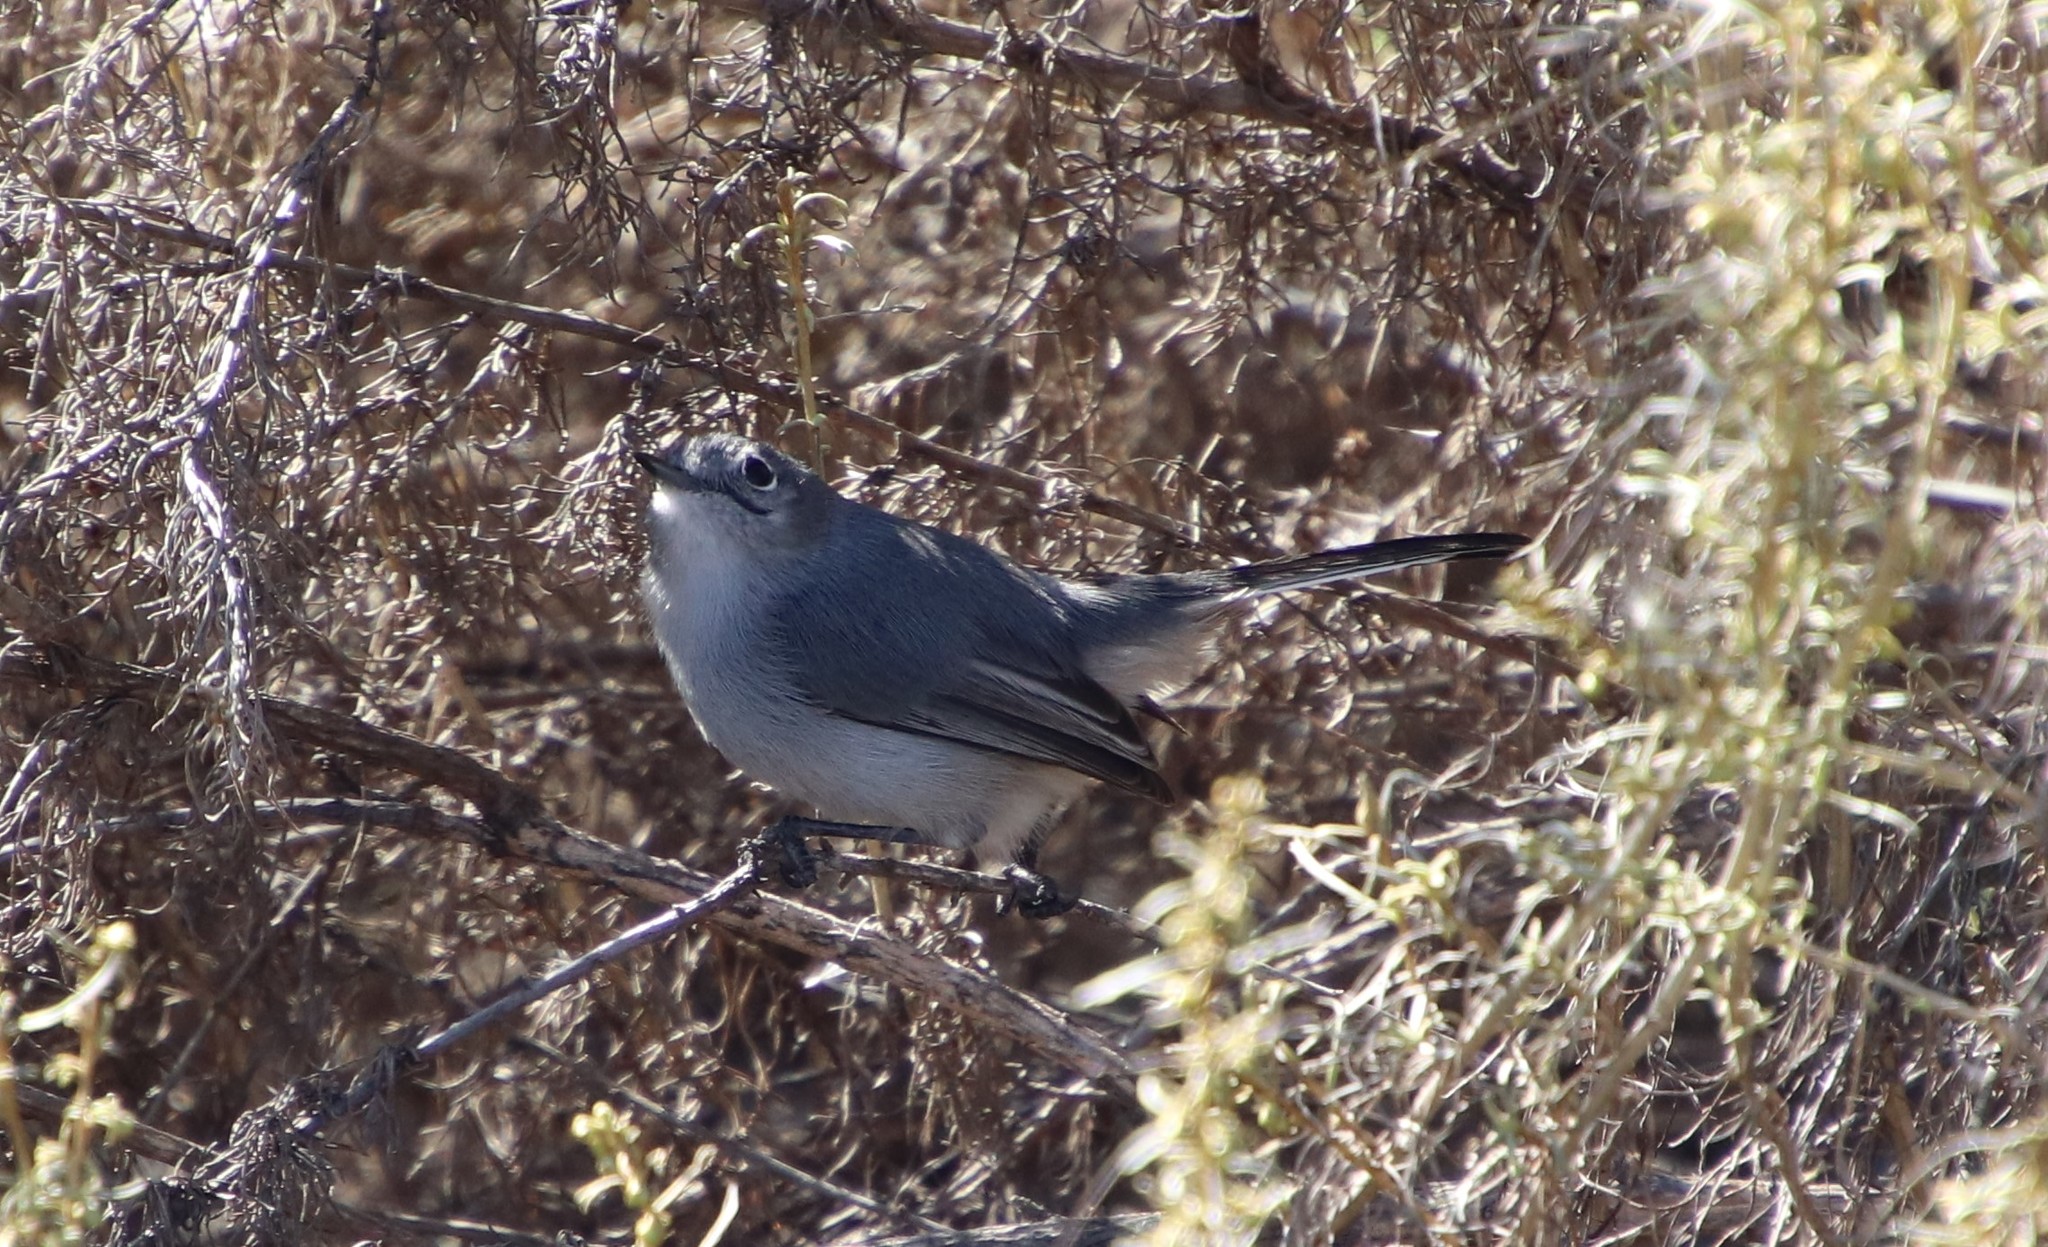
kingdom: Animalia
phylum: Chordata
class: Aves
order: Passeriformes
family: Polioptilidae
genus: Polioptila
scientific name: Polioptila caerulea
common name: Blue-gray gnatcatcher
